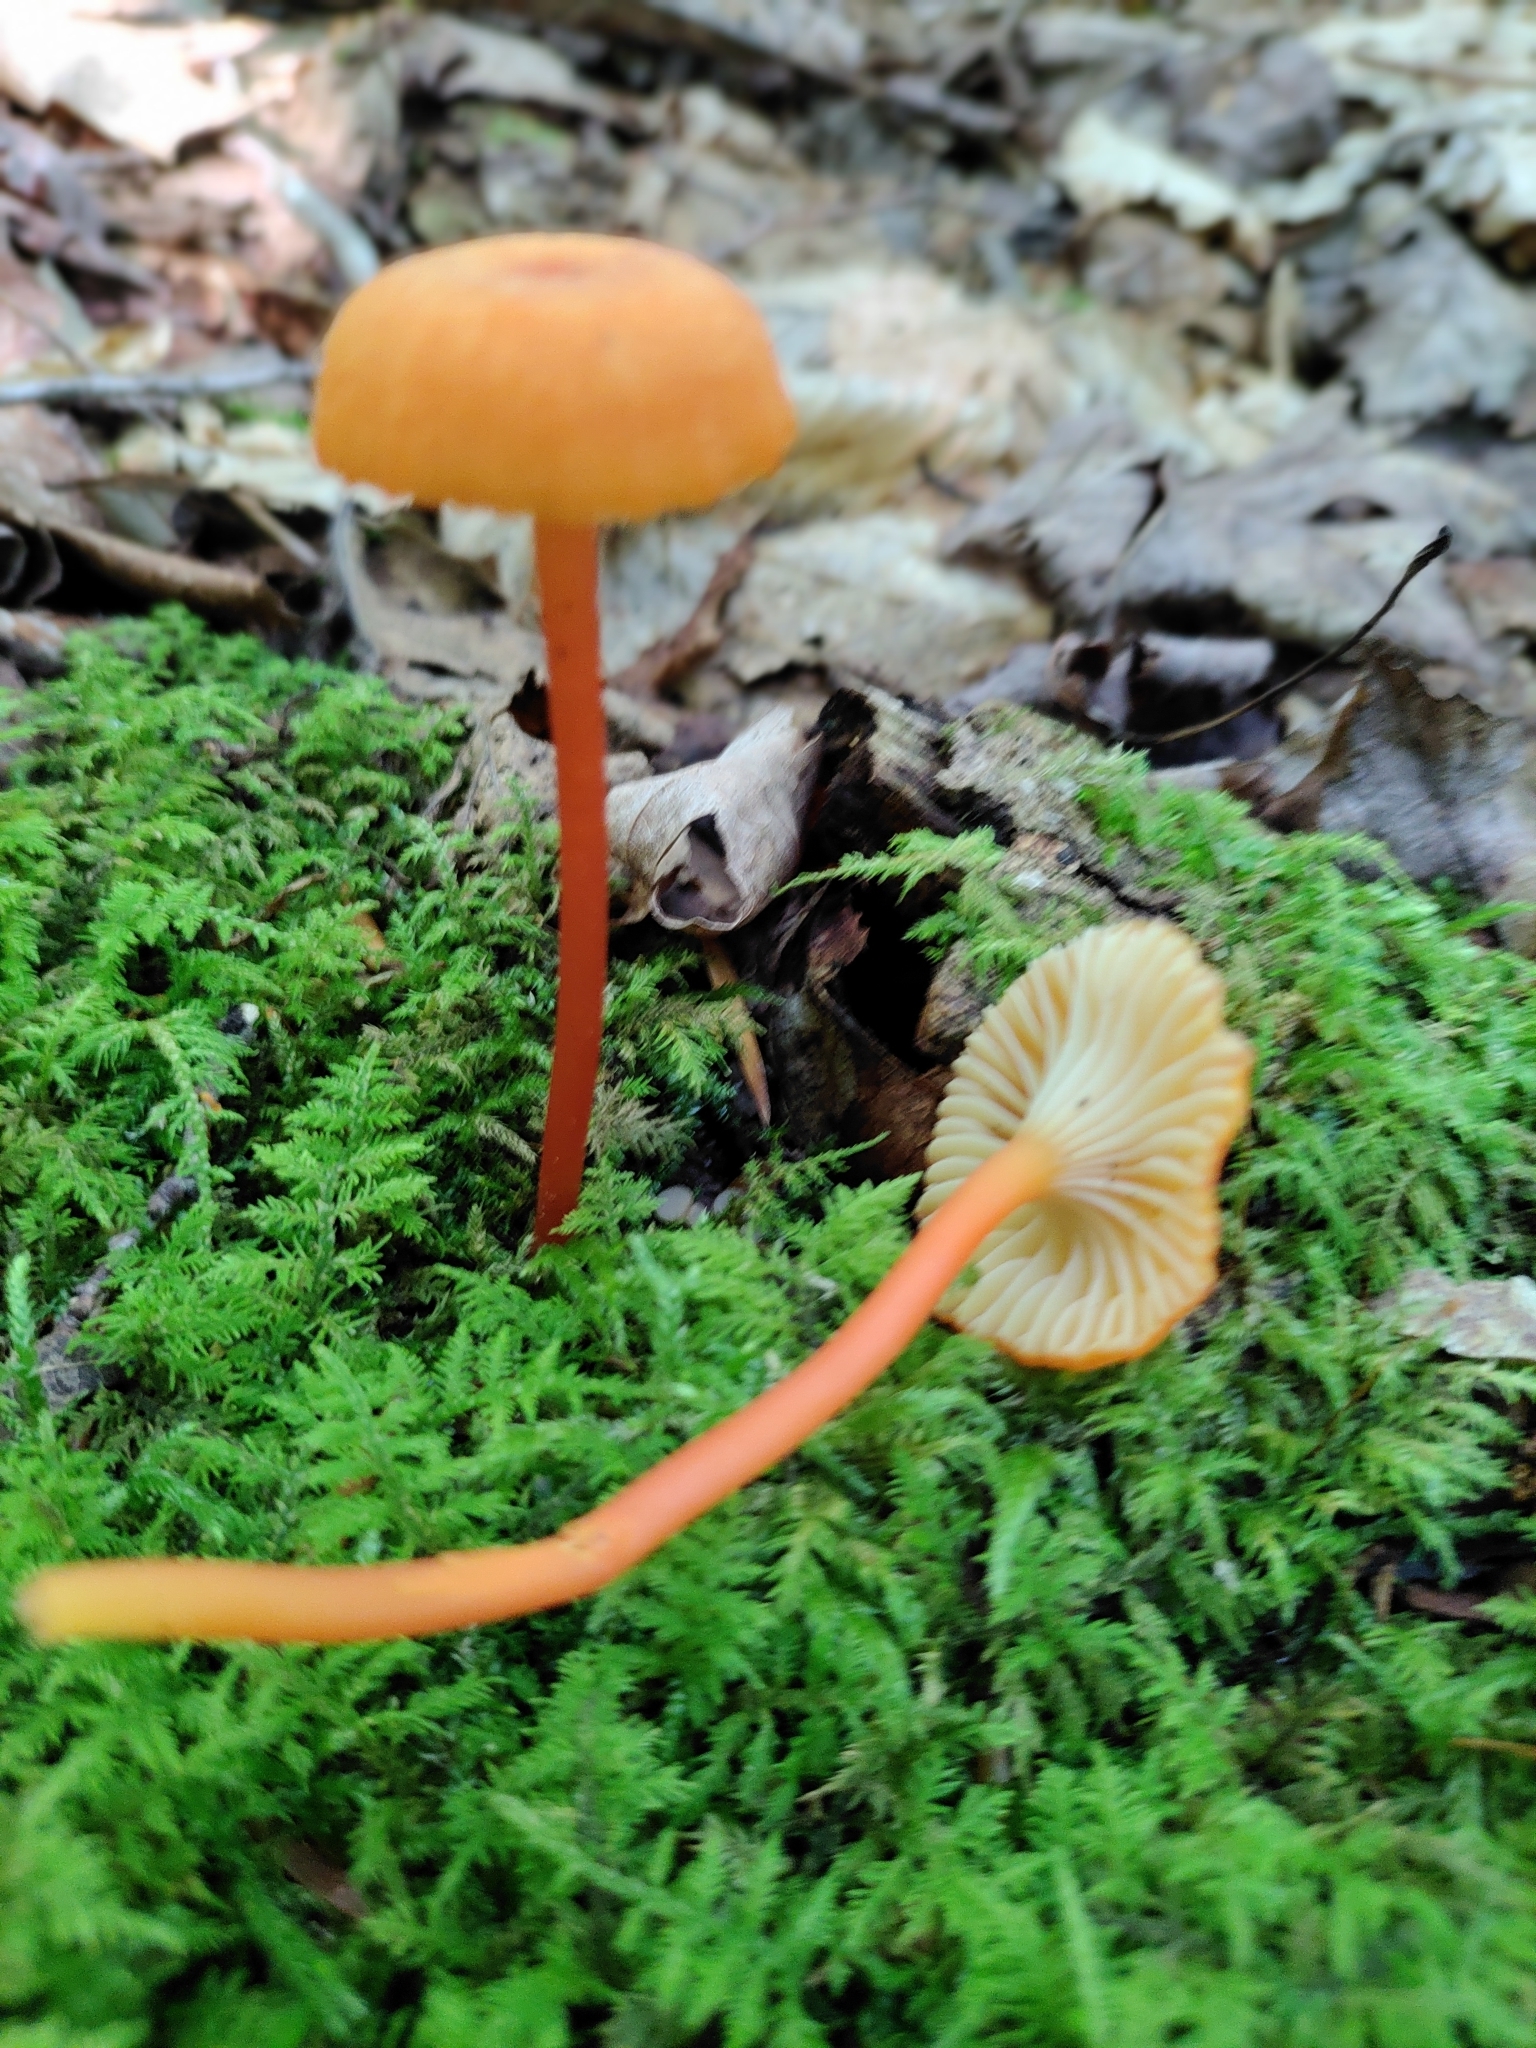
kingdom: Fungi
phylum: Basidiomycota
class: Agaricomycetes
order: Agaricales
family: Hygrophoraceae
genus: Hygrocybe
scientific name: Hygrocybe cantharellus
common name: Goblet waxcap
